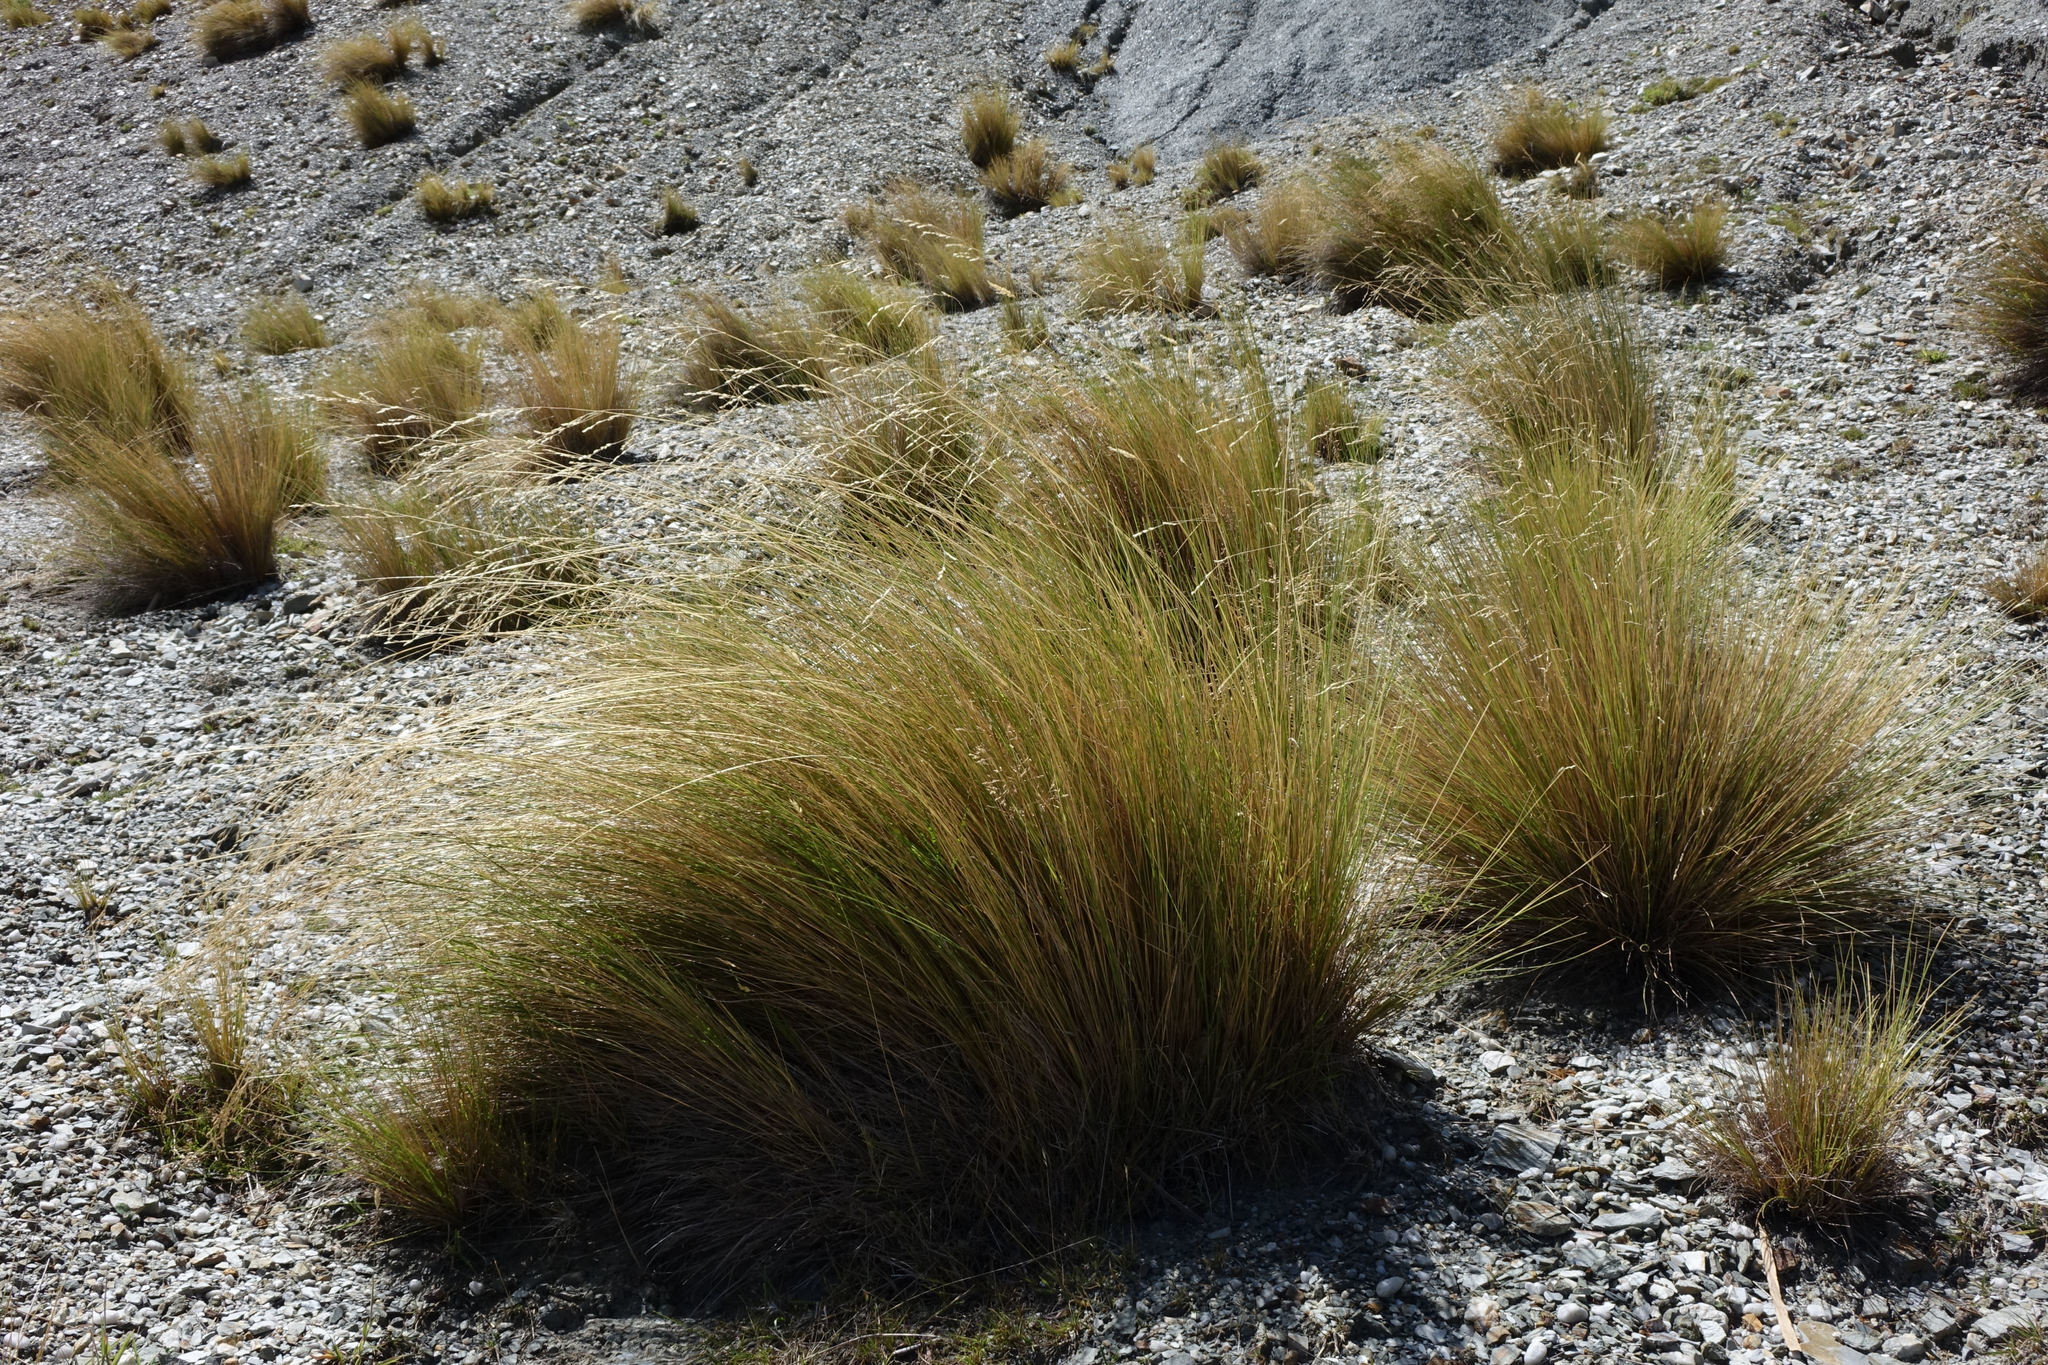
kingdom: Plantae
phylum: Tracheophyta
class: Liliopsida
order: Poales
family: Poaceae
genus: Poa
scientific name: Poa cita
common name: Silver tussock
